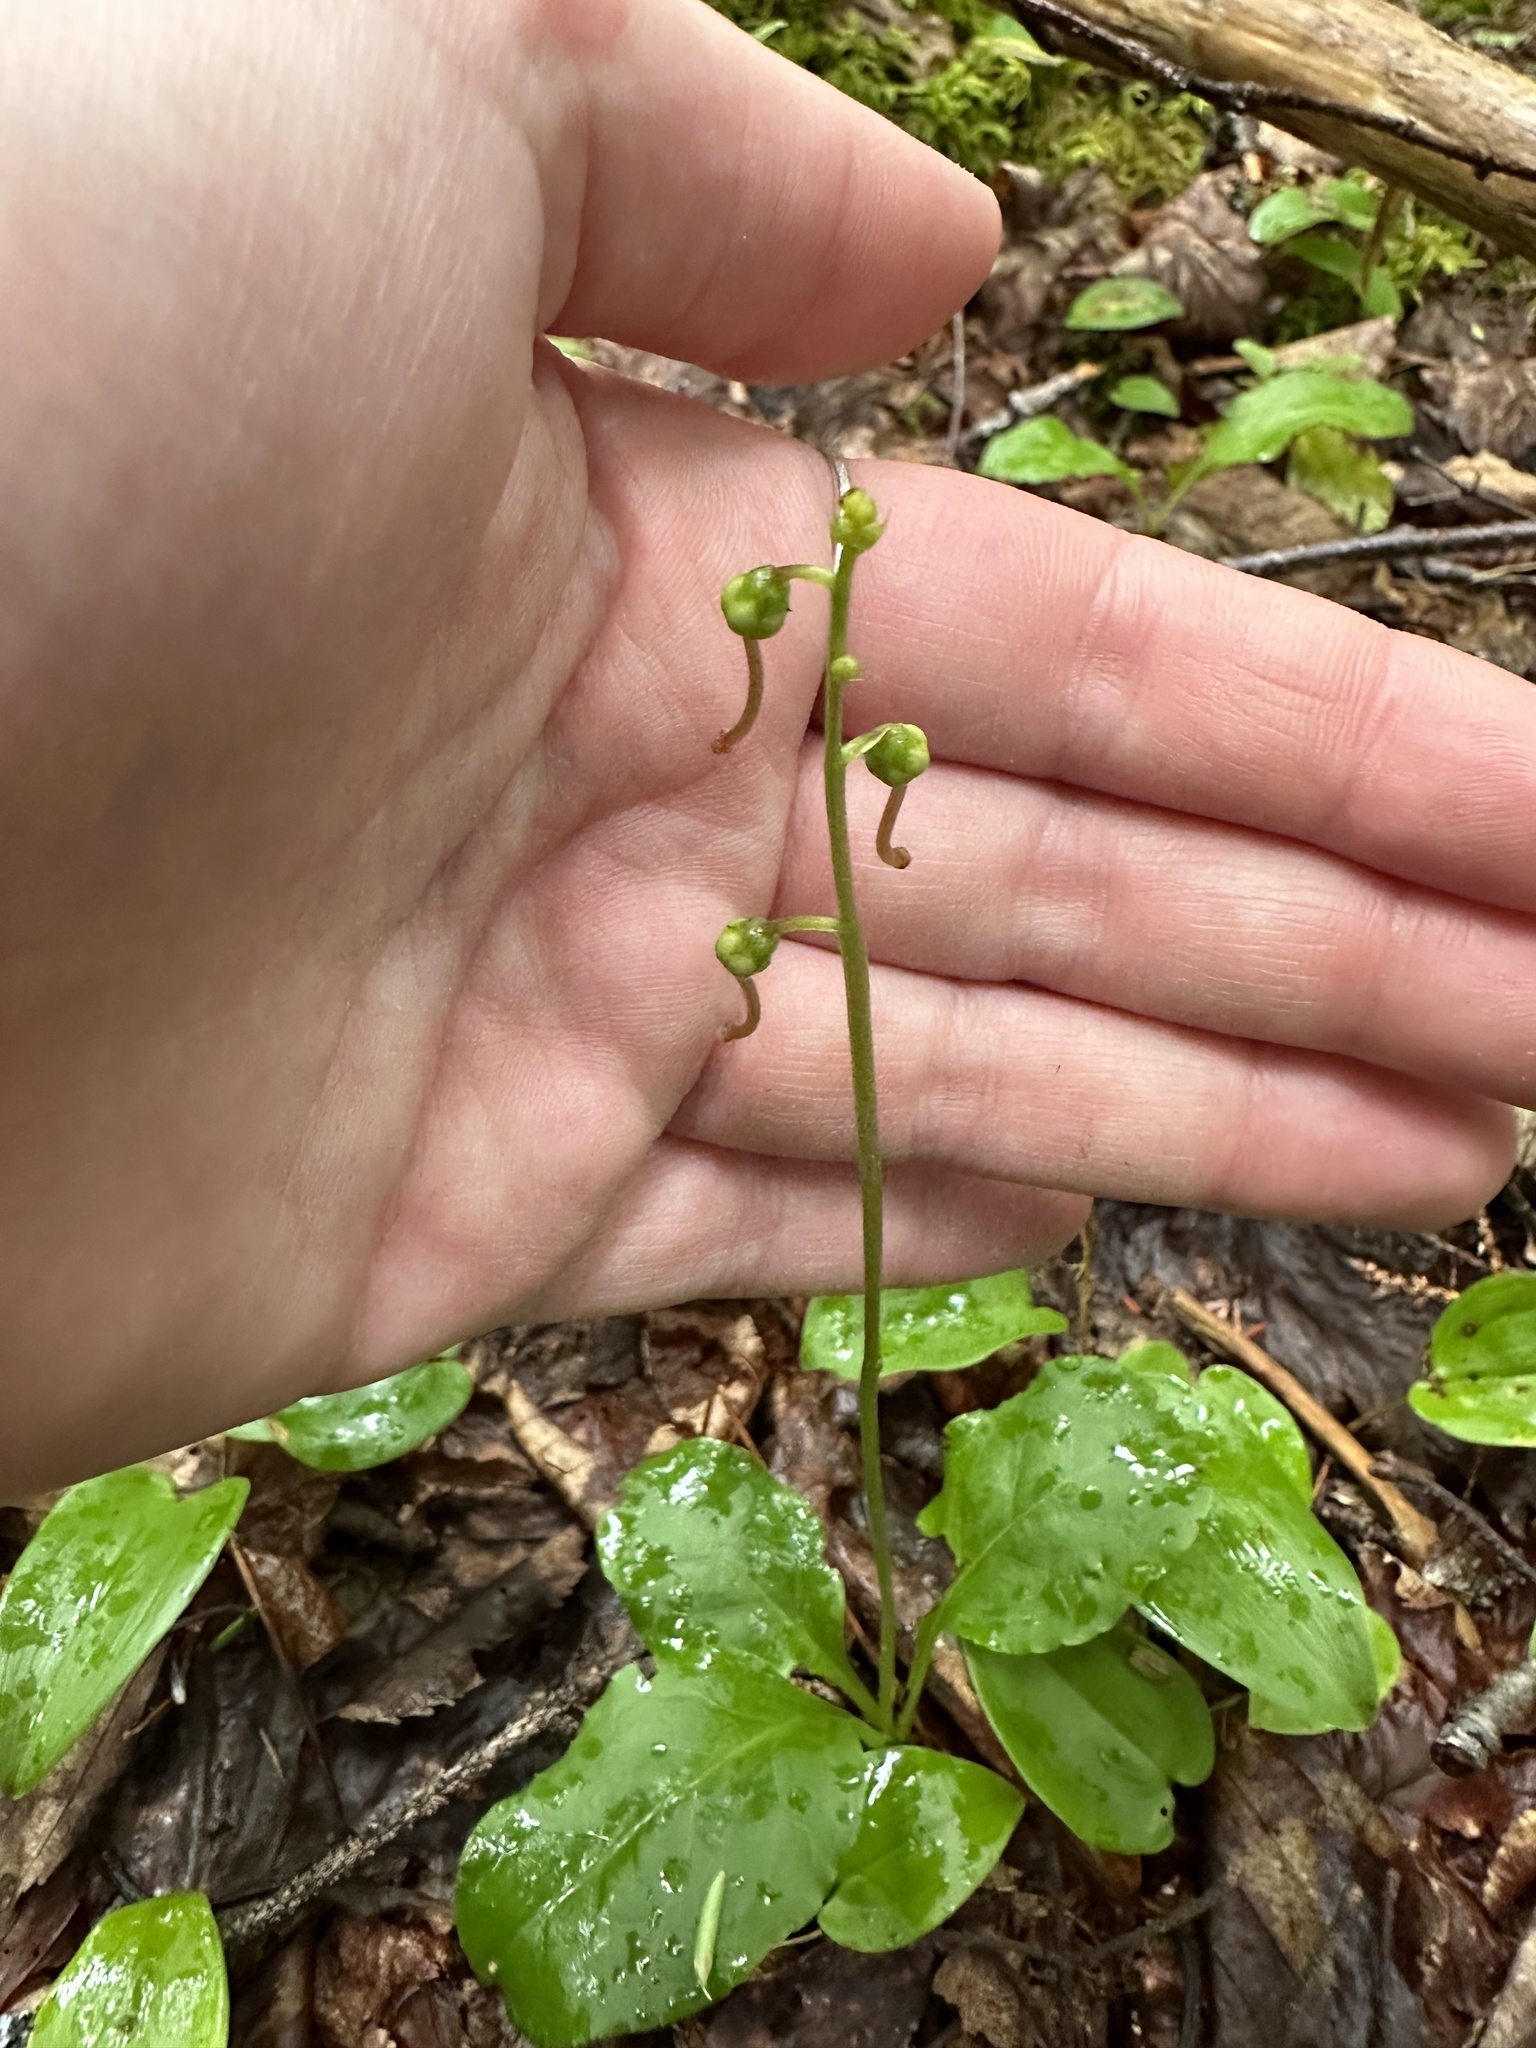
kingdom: Plantae
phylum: Tracheophyta
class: Magnoliopsida
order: Ericales
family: Ericaceae
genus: Pyrola
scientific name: Pyrola elliptica
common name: Shinleaf
